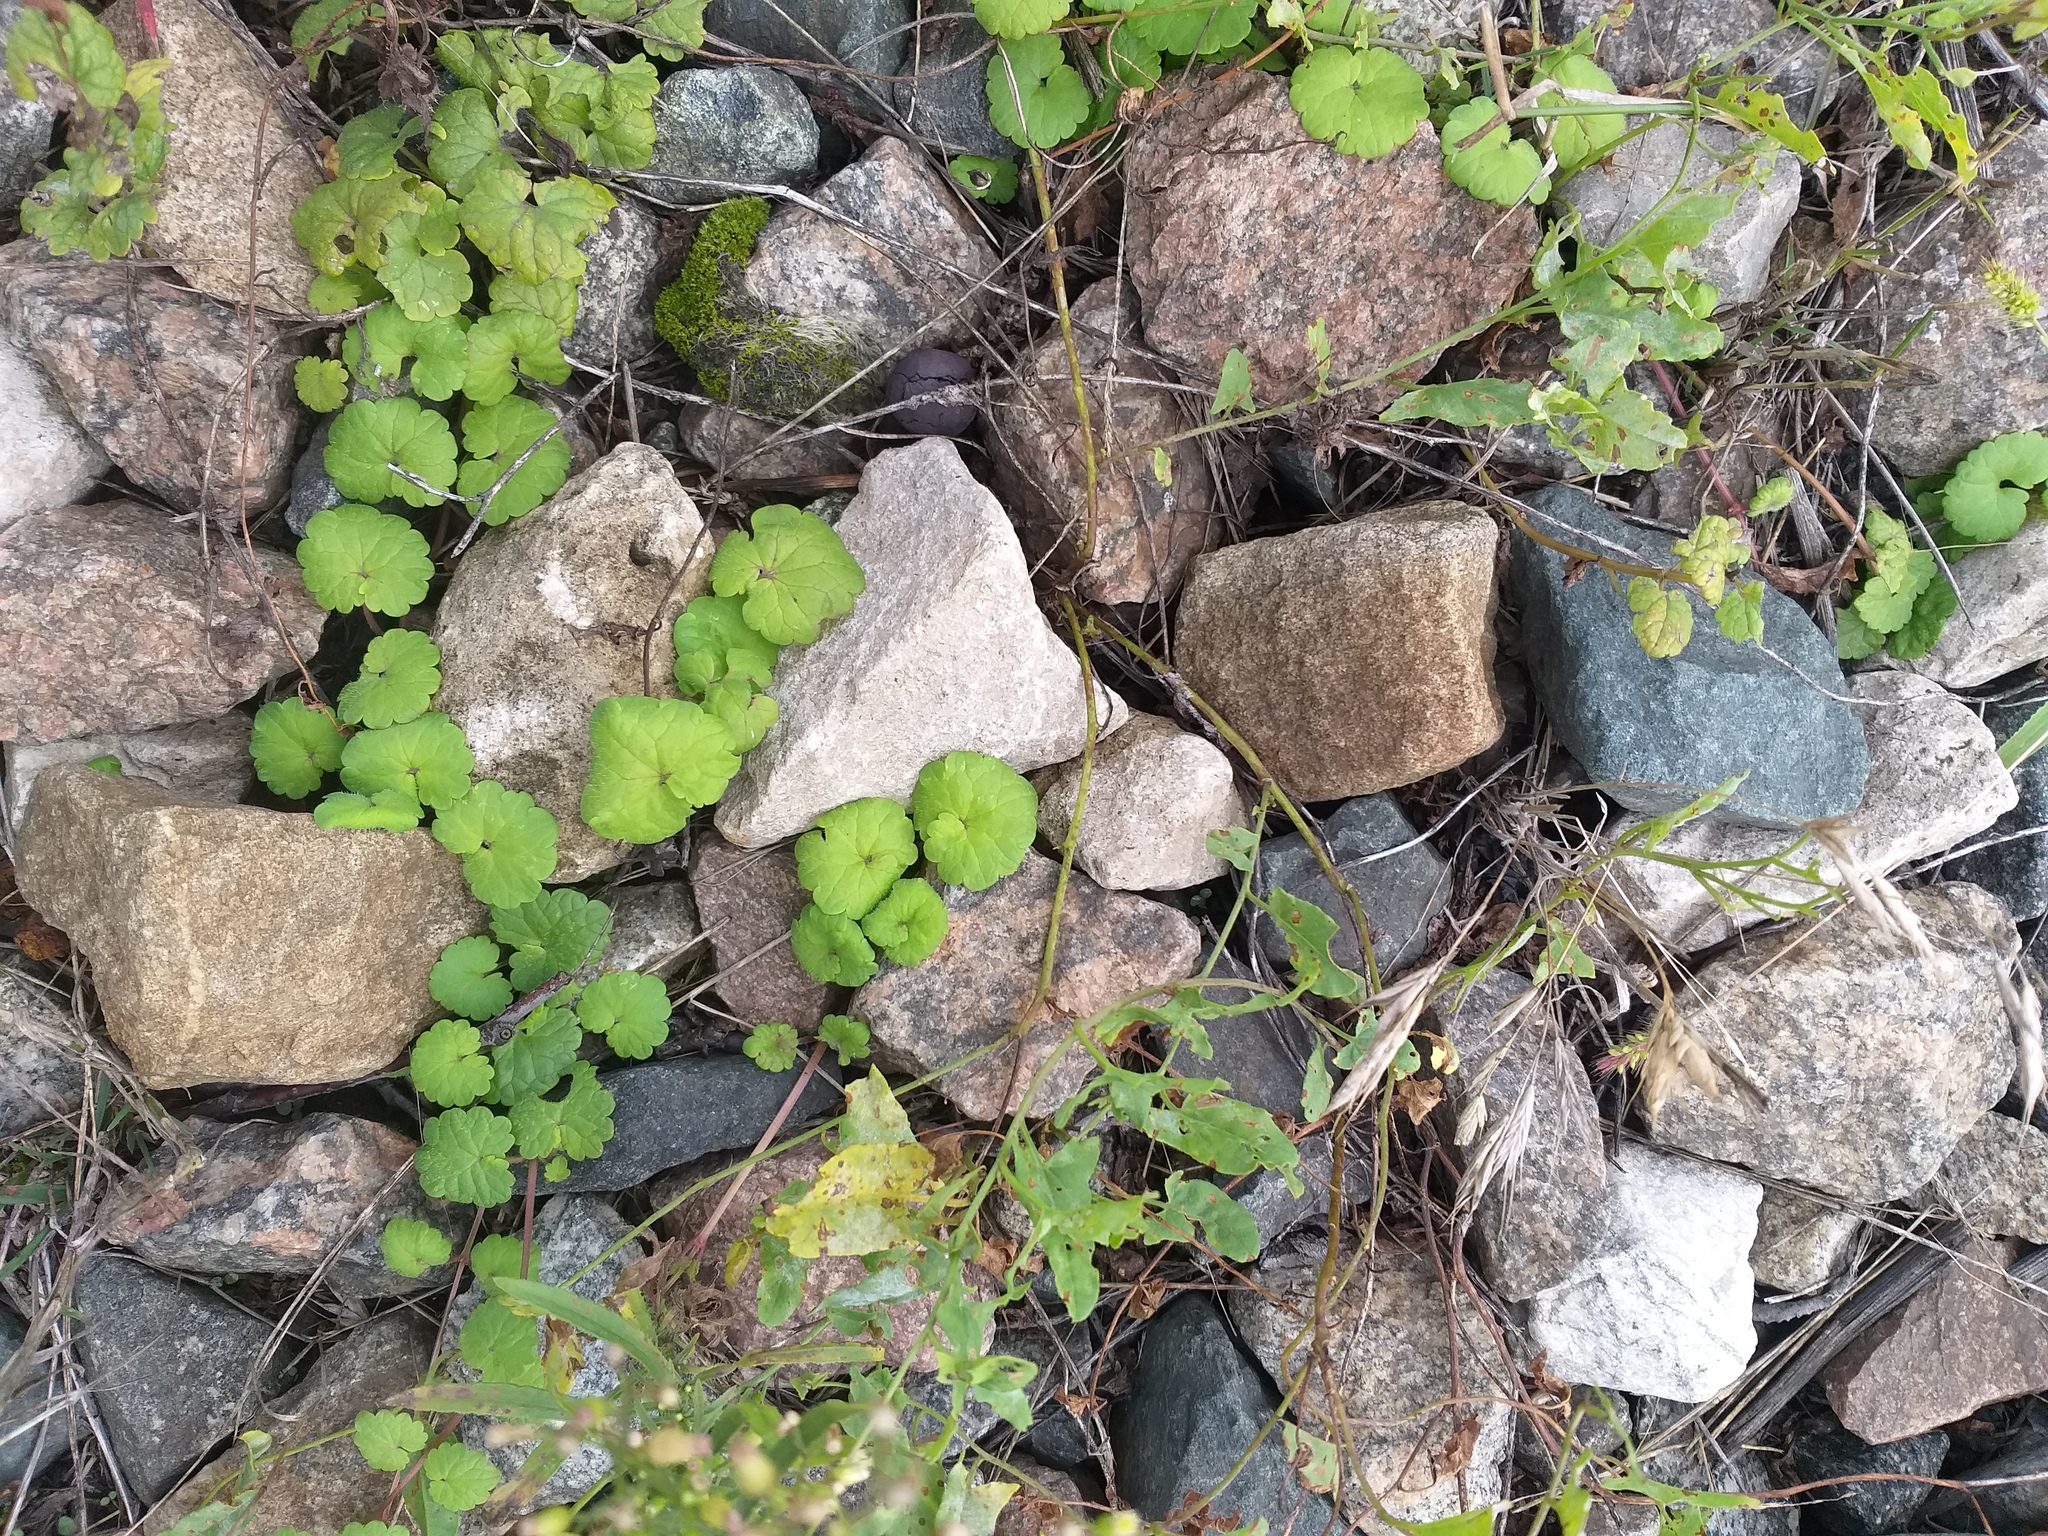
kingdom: Plantae
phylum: Tracheophyta
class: Magnoliopsida
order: Lamiales
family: Lamiaceae
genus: Glechoma
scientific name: Glechoma hederacea
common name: Ground ivy
